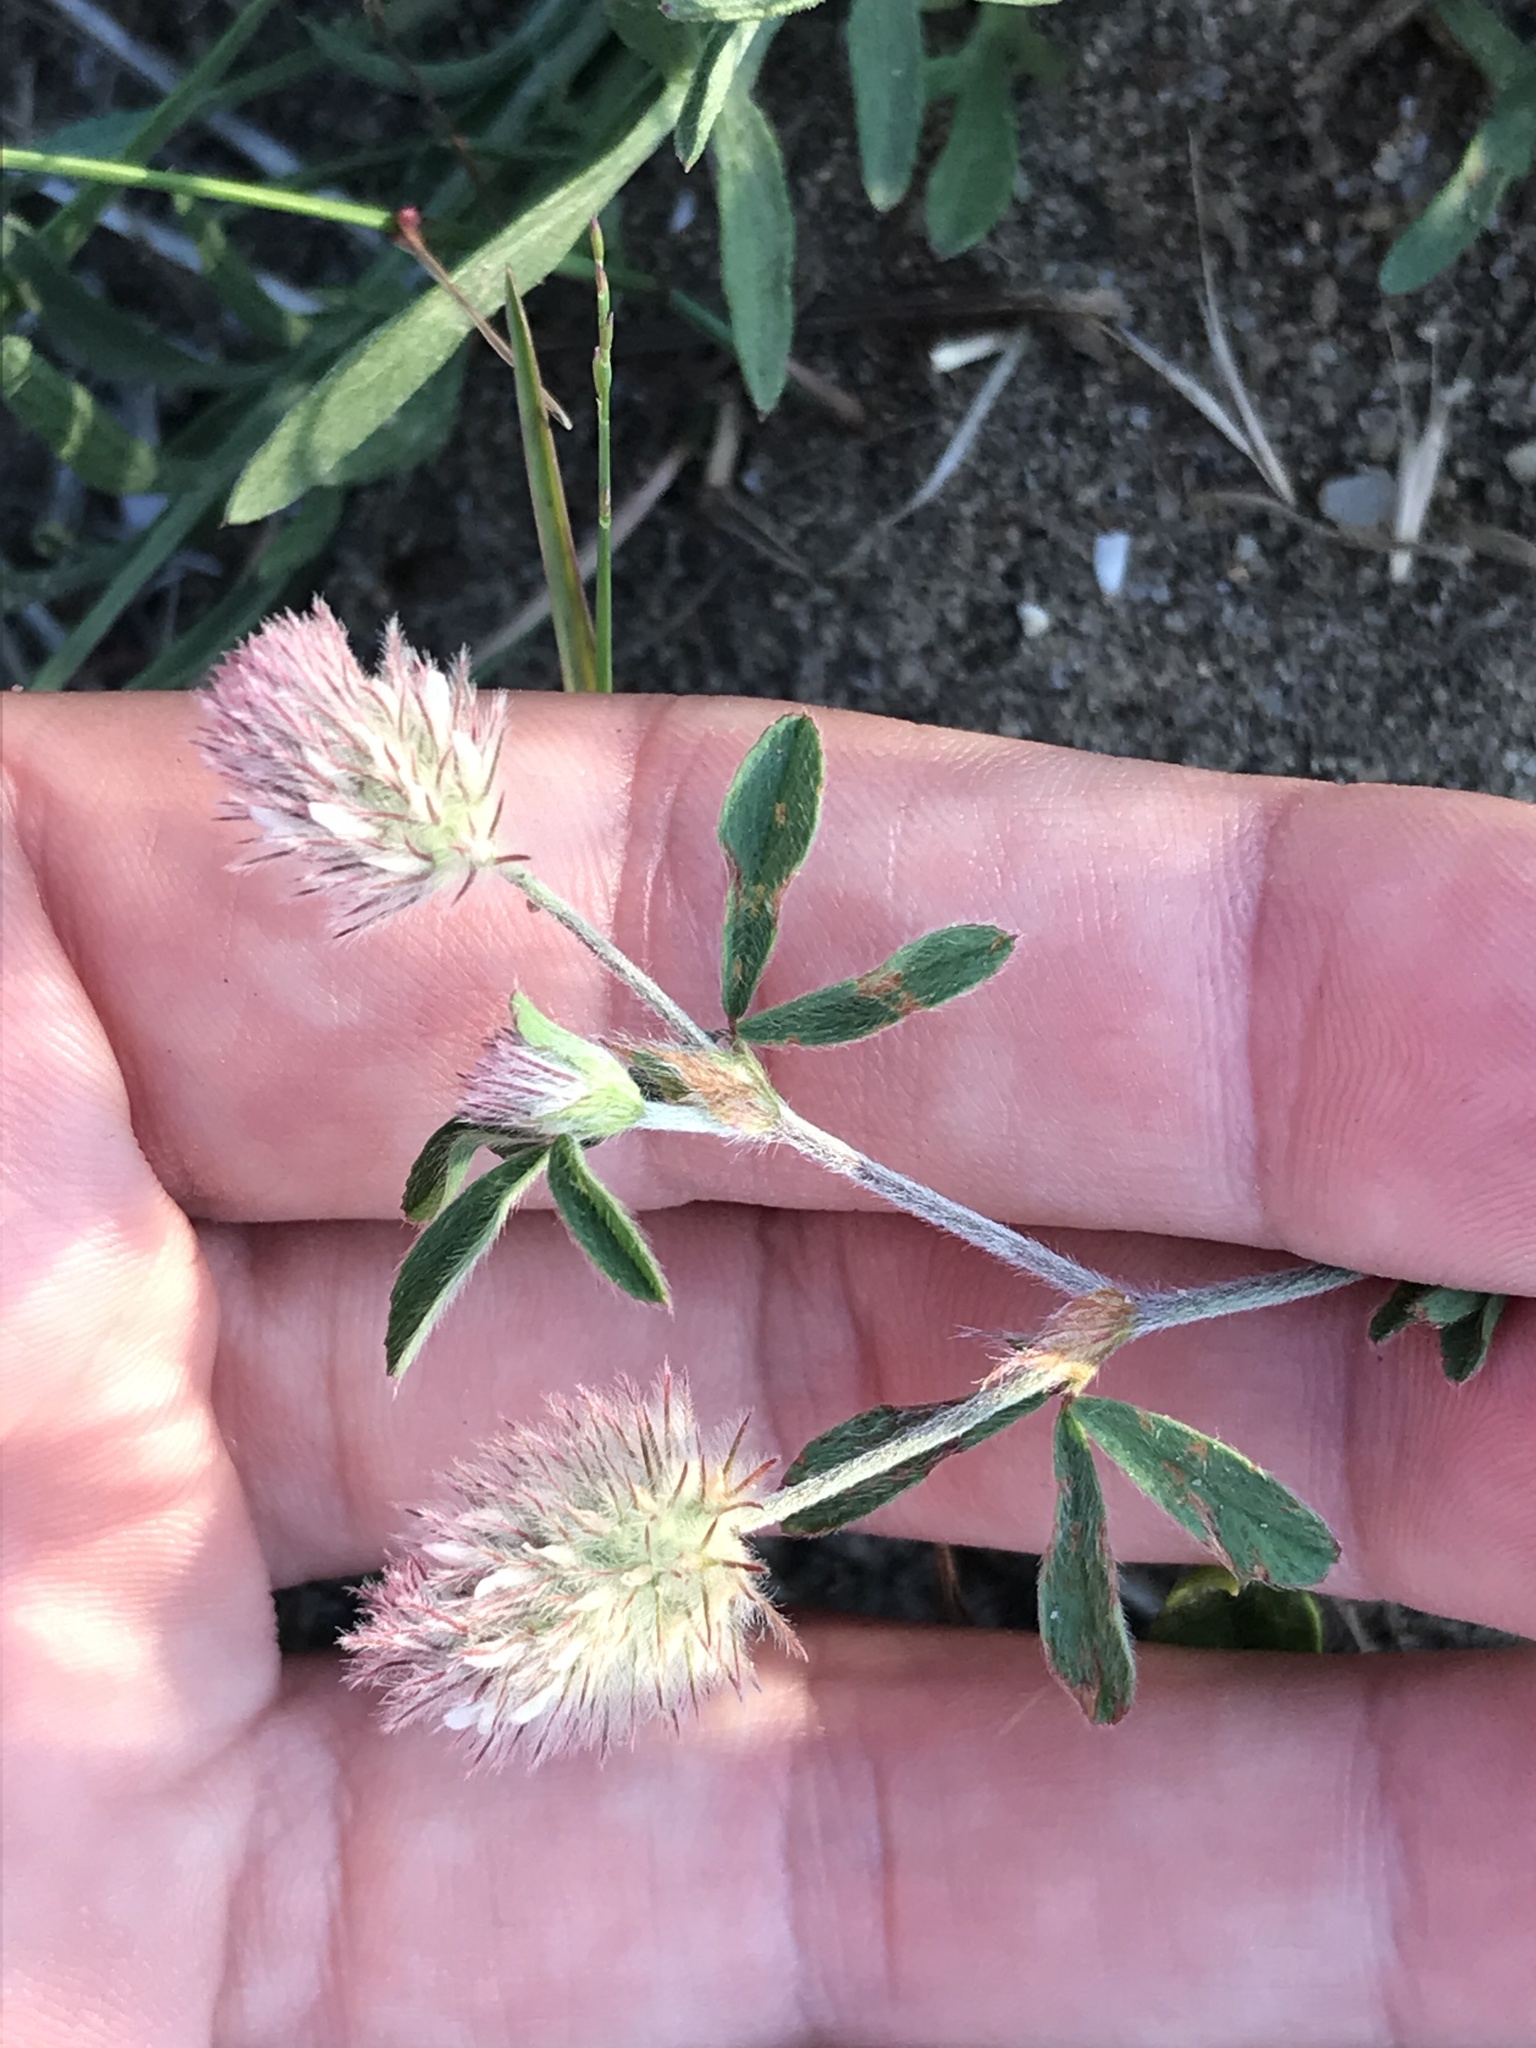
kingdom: Plantae
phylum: Tracheophyta
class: Magnoliopsida
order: Fabales
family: Fabaceae
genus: Trifolium
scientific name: Trifolium arvense
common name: Hare's-foot clover
